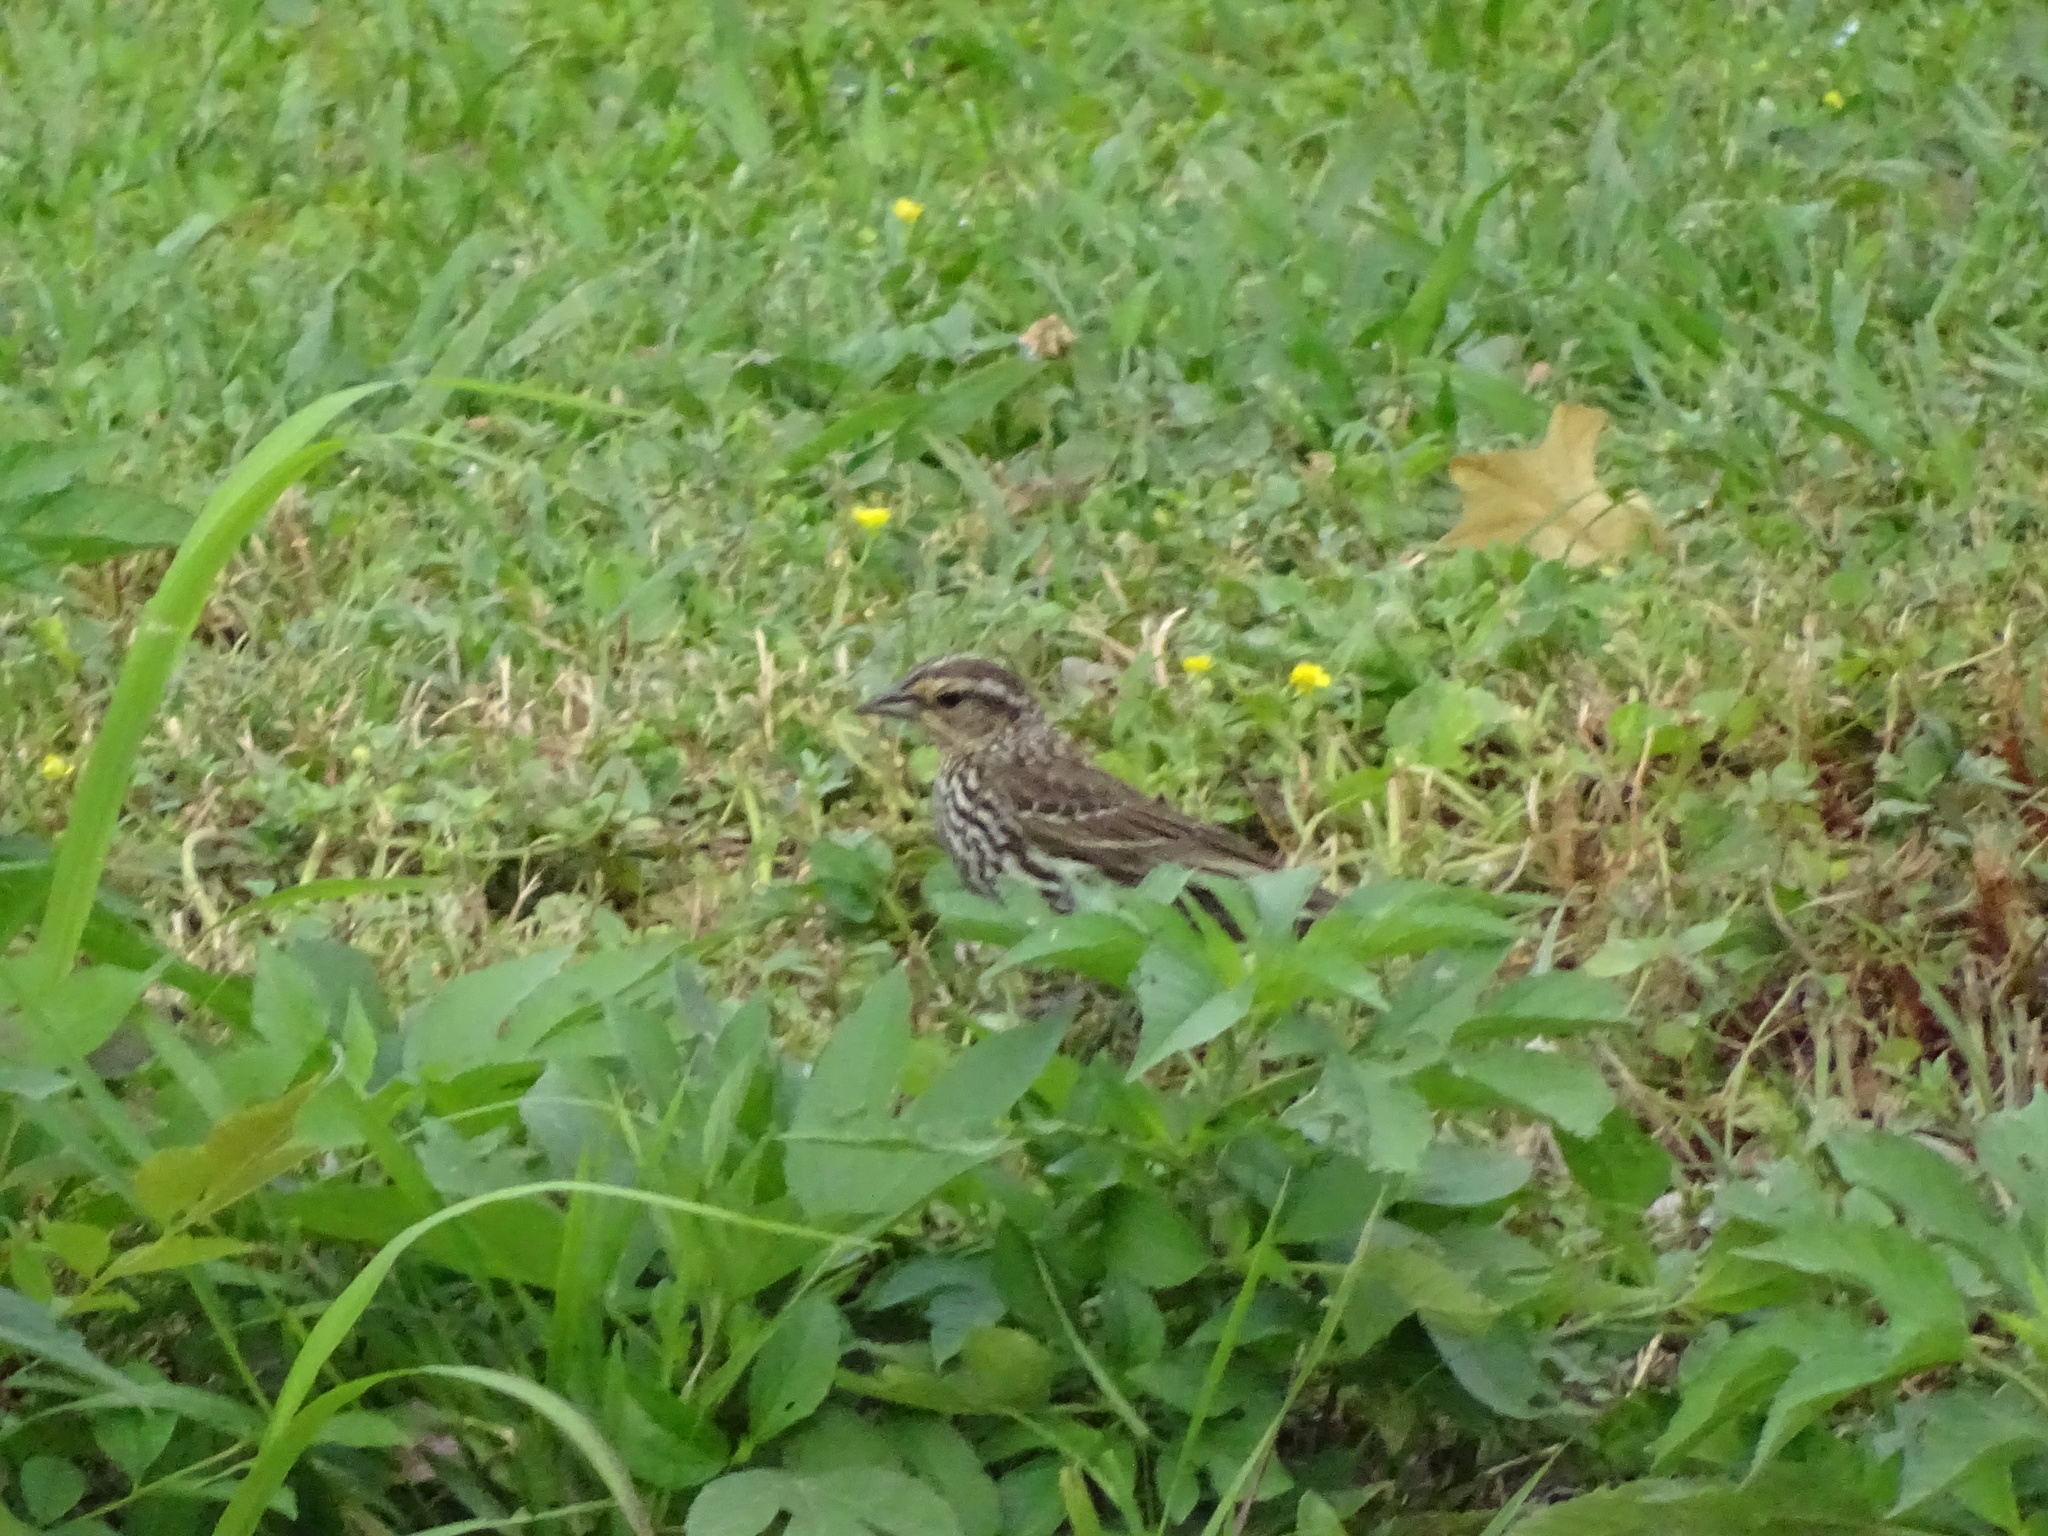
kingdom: Animalia
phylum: Chordata
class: Aves
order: Passeriformes
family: Icteridae
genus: Agelaius
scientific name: Agelaius phoeniceus
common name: Red-winged blackbird
